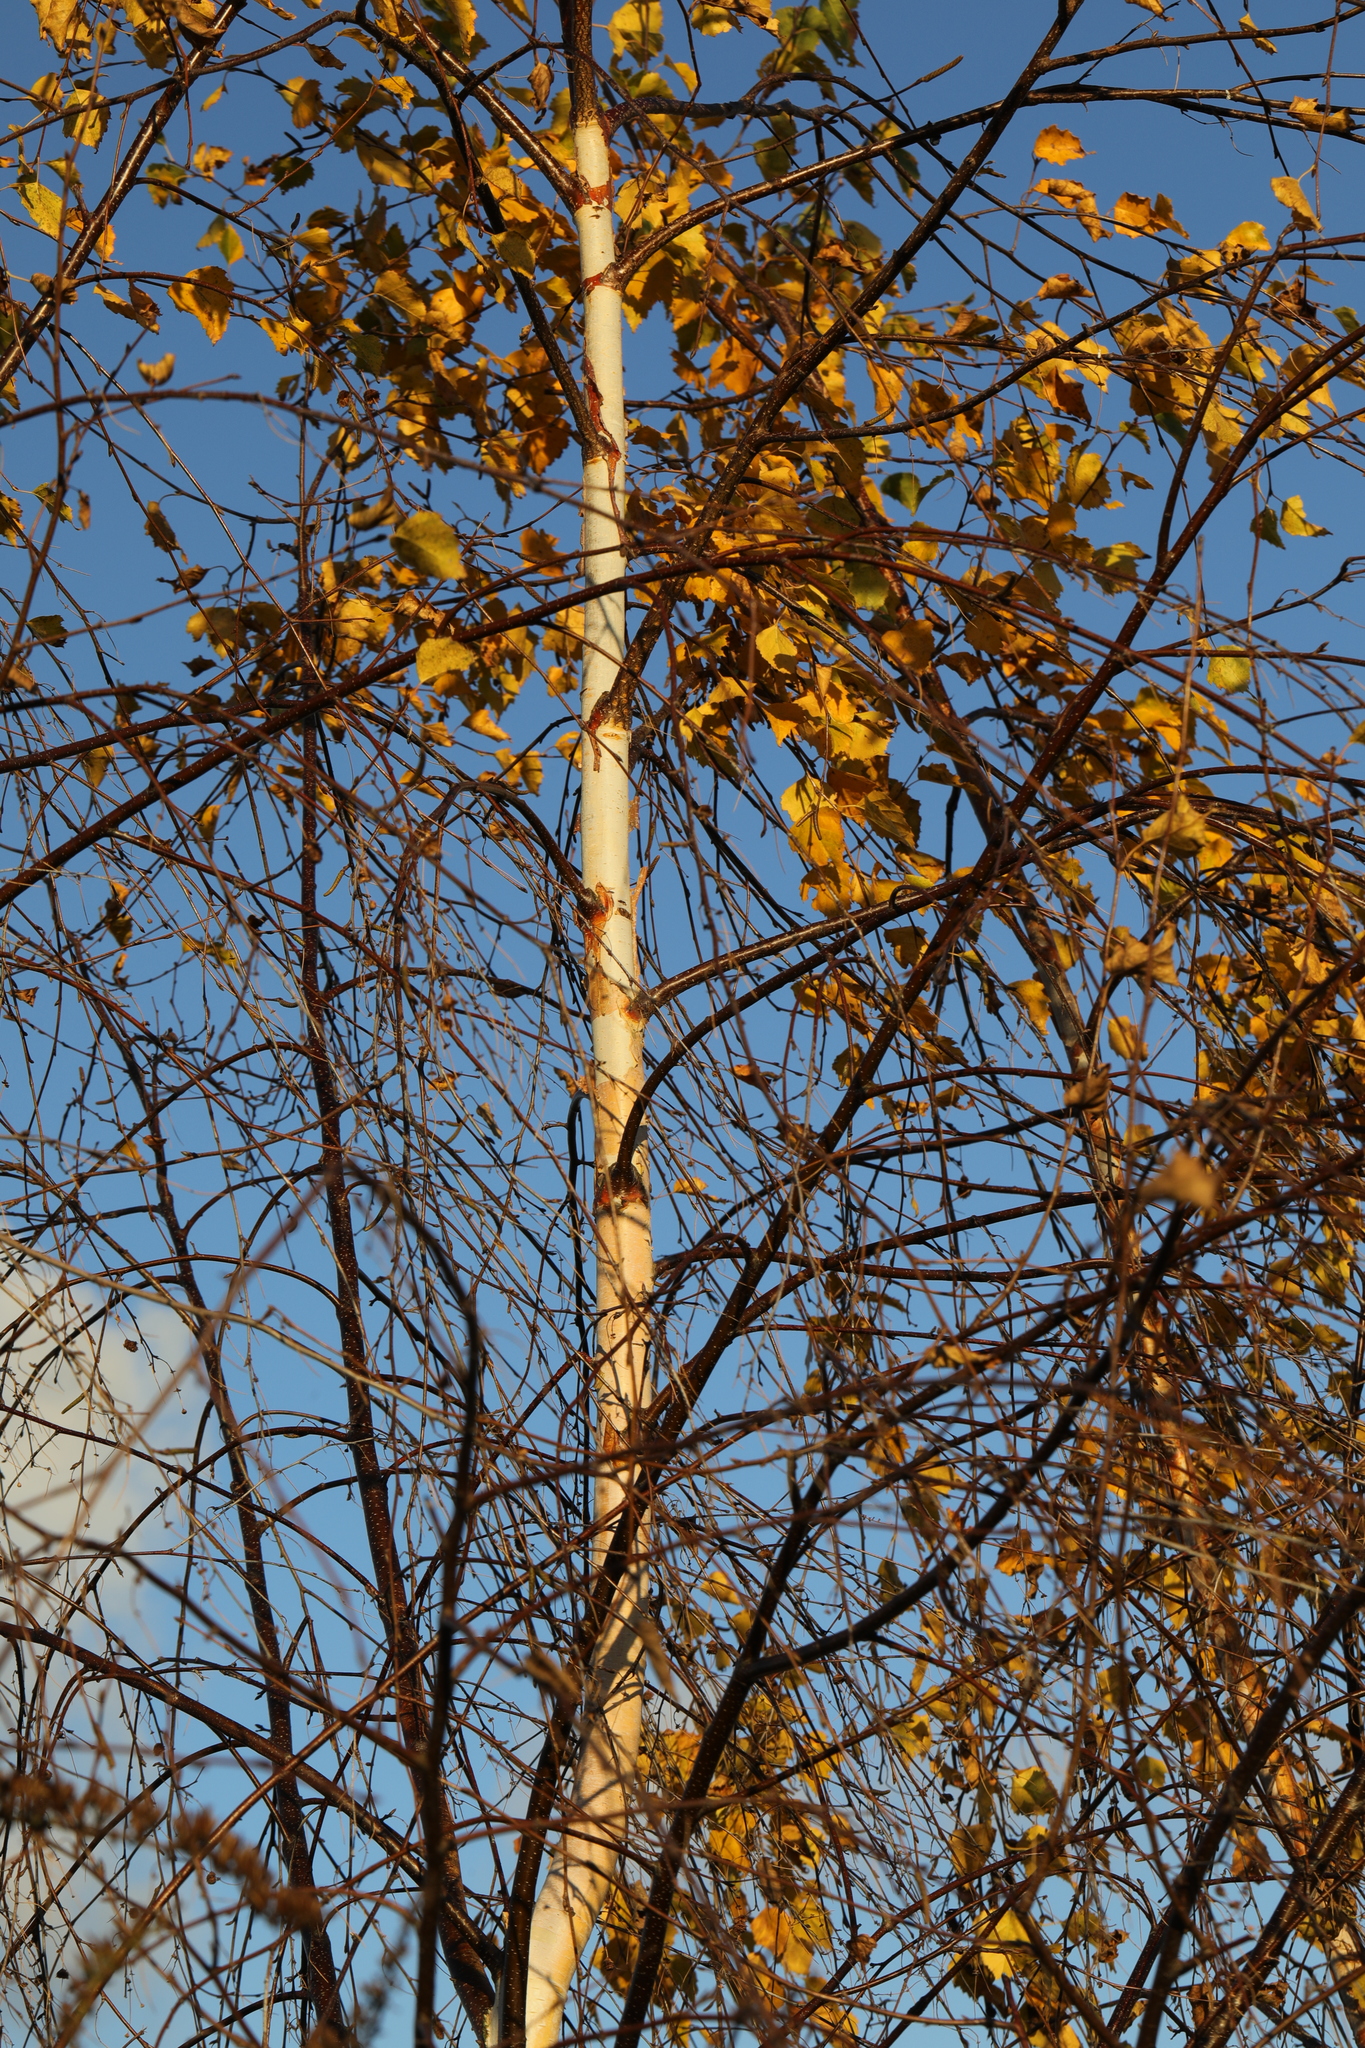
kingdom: Plantae
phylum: Tracheophyta
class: Magnoliopsida
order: Fagales
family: Betulaceae
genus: Betula
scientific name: Betula pendula
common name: Silver birch
